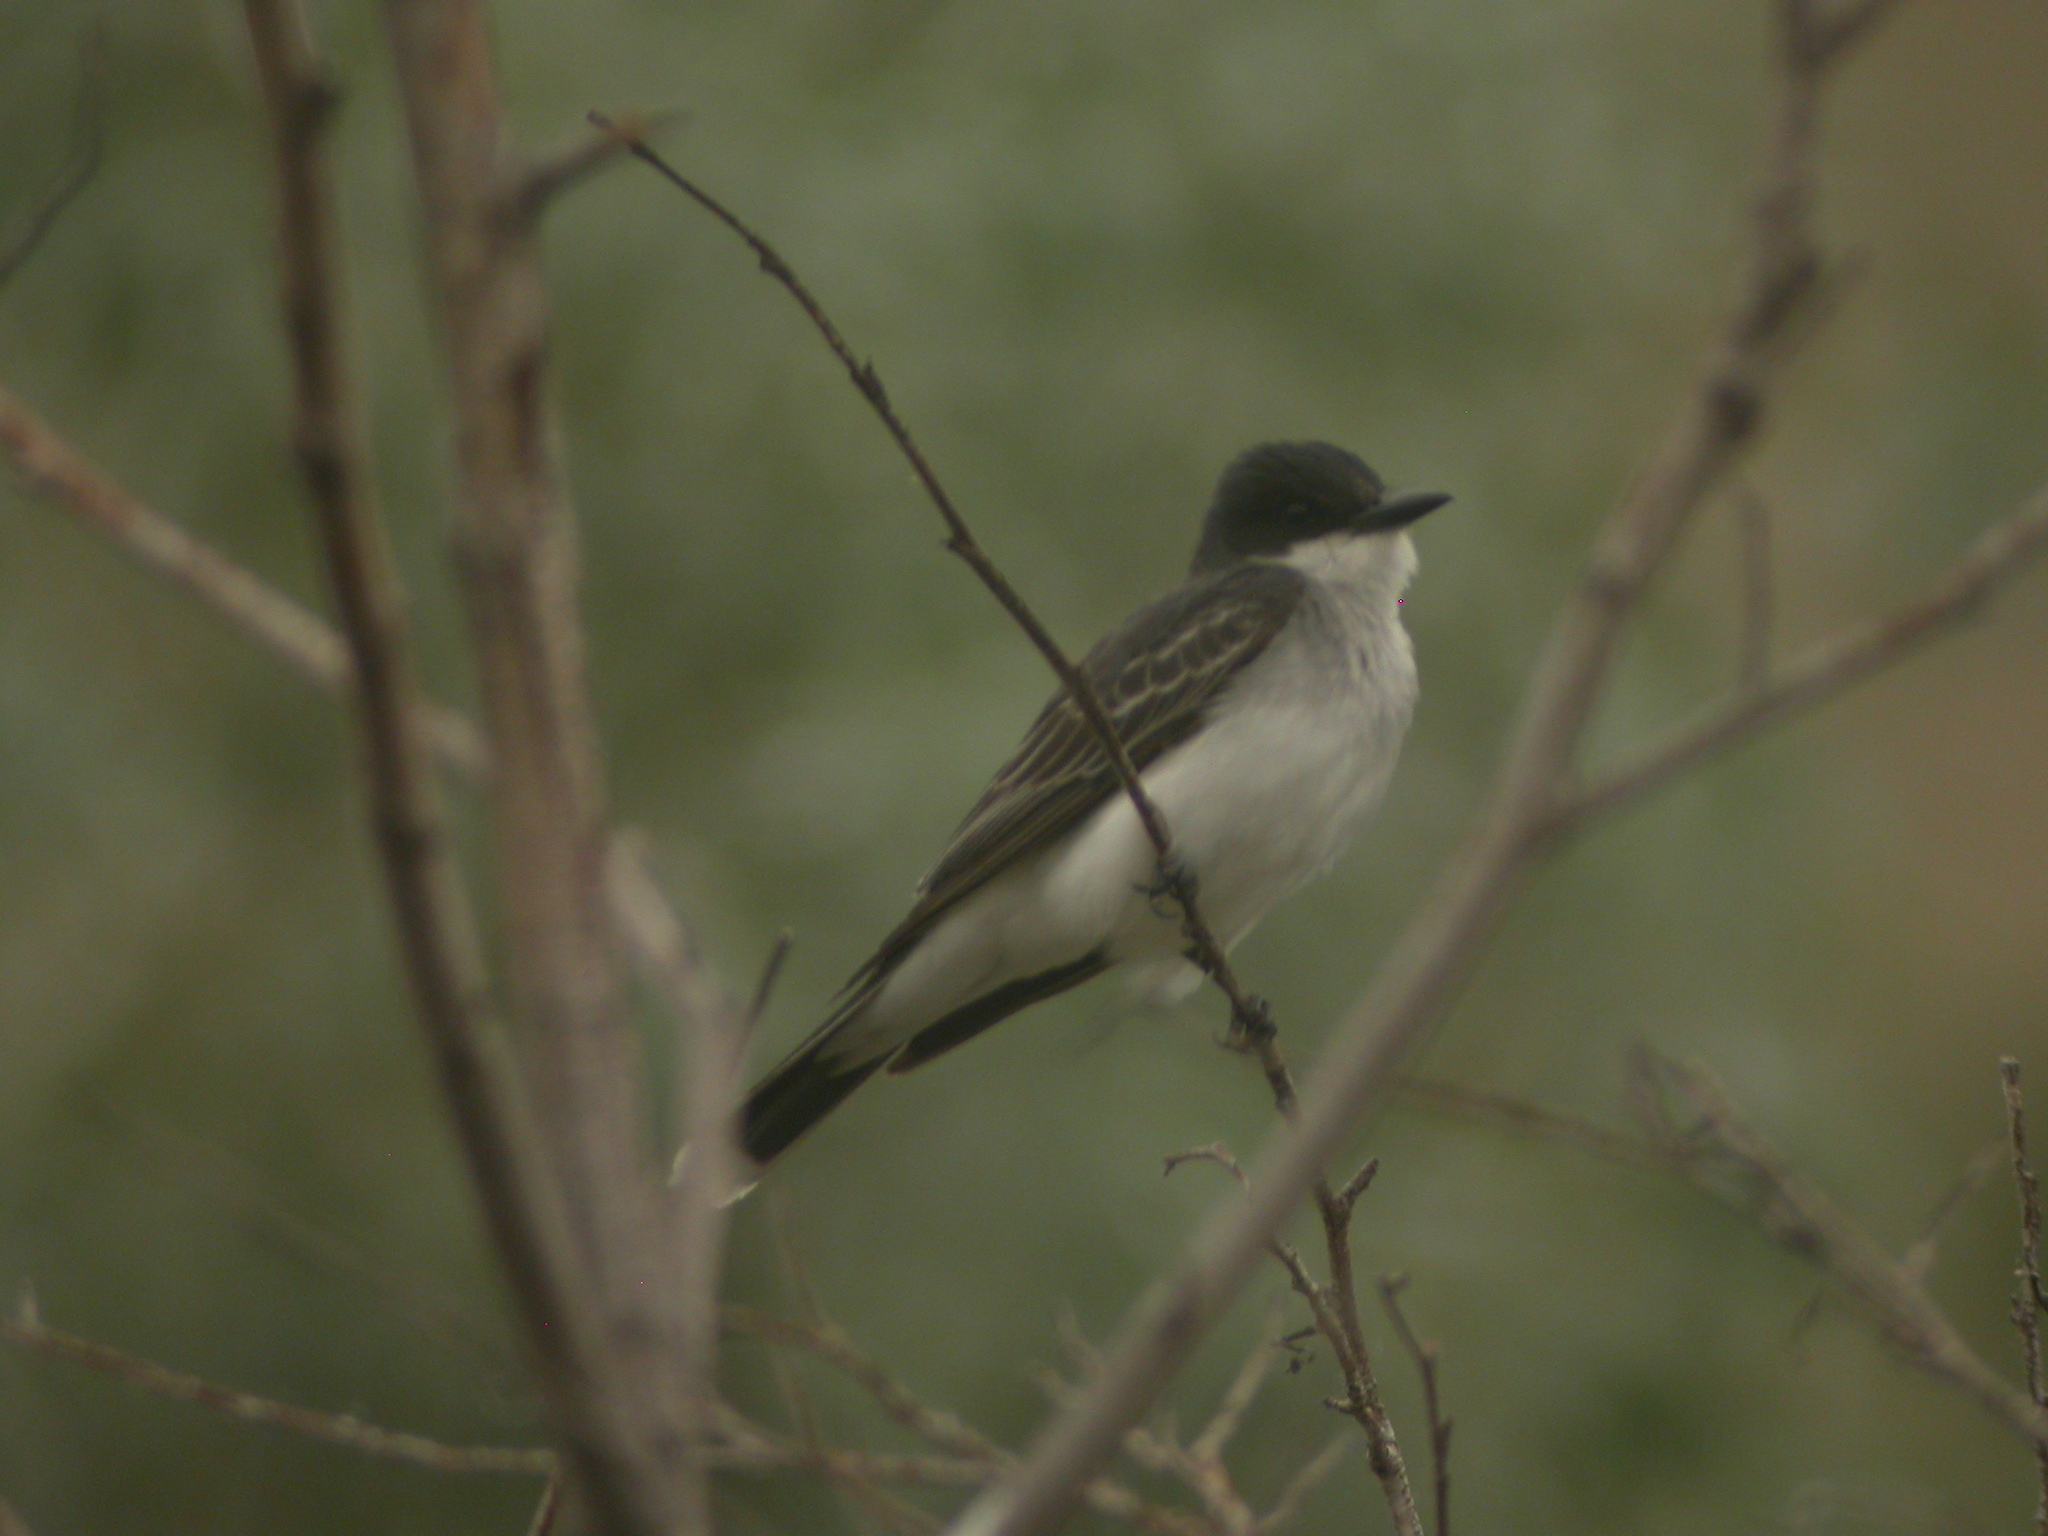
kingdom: Animalia
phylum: Chordata
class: Aves
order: Passeriformes
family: Tyrannidae
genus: Tyrannus
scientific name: Tyrannus tyrannus
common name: Eastern kingbird
